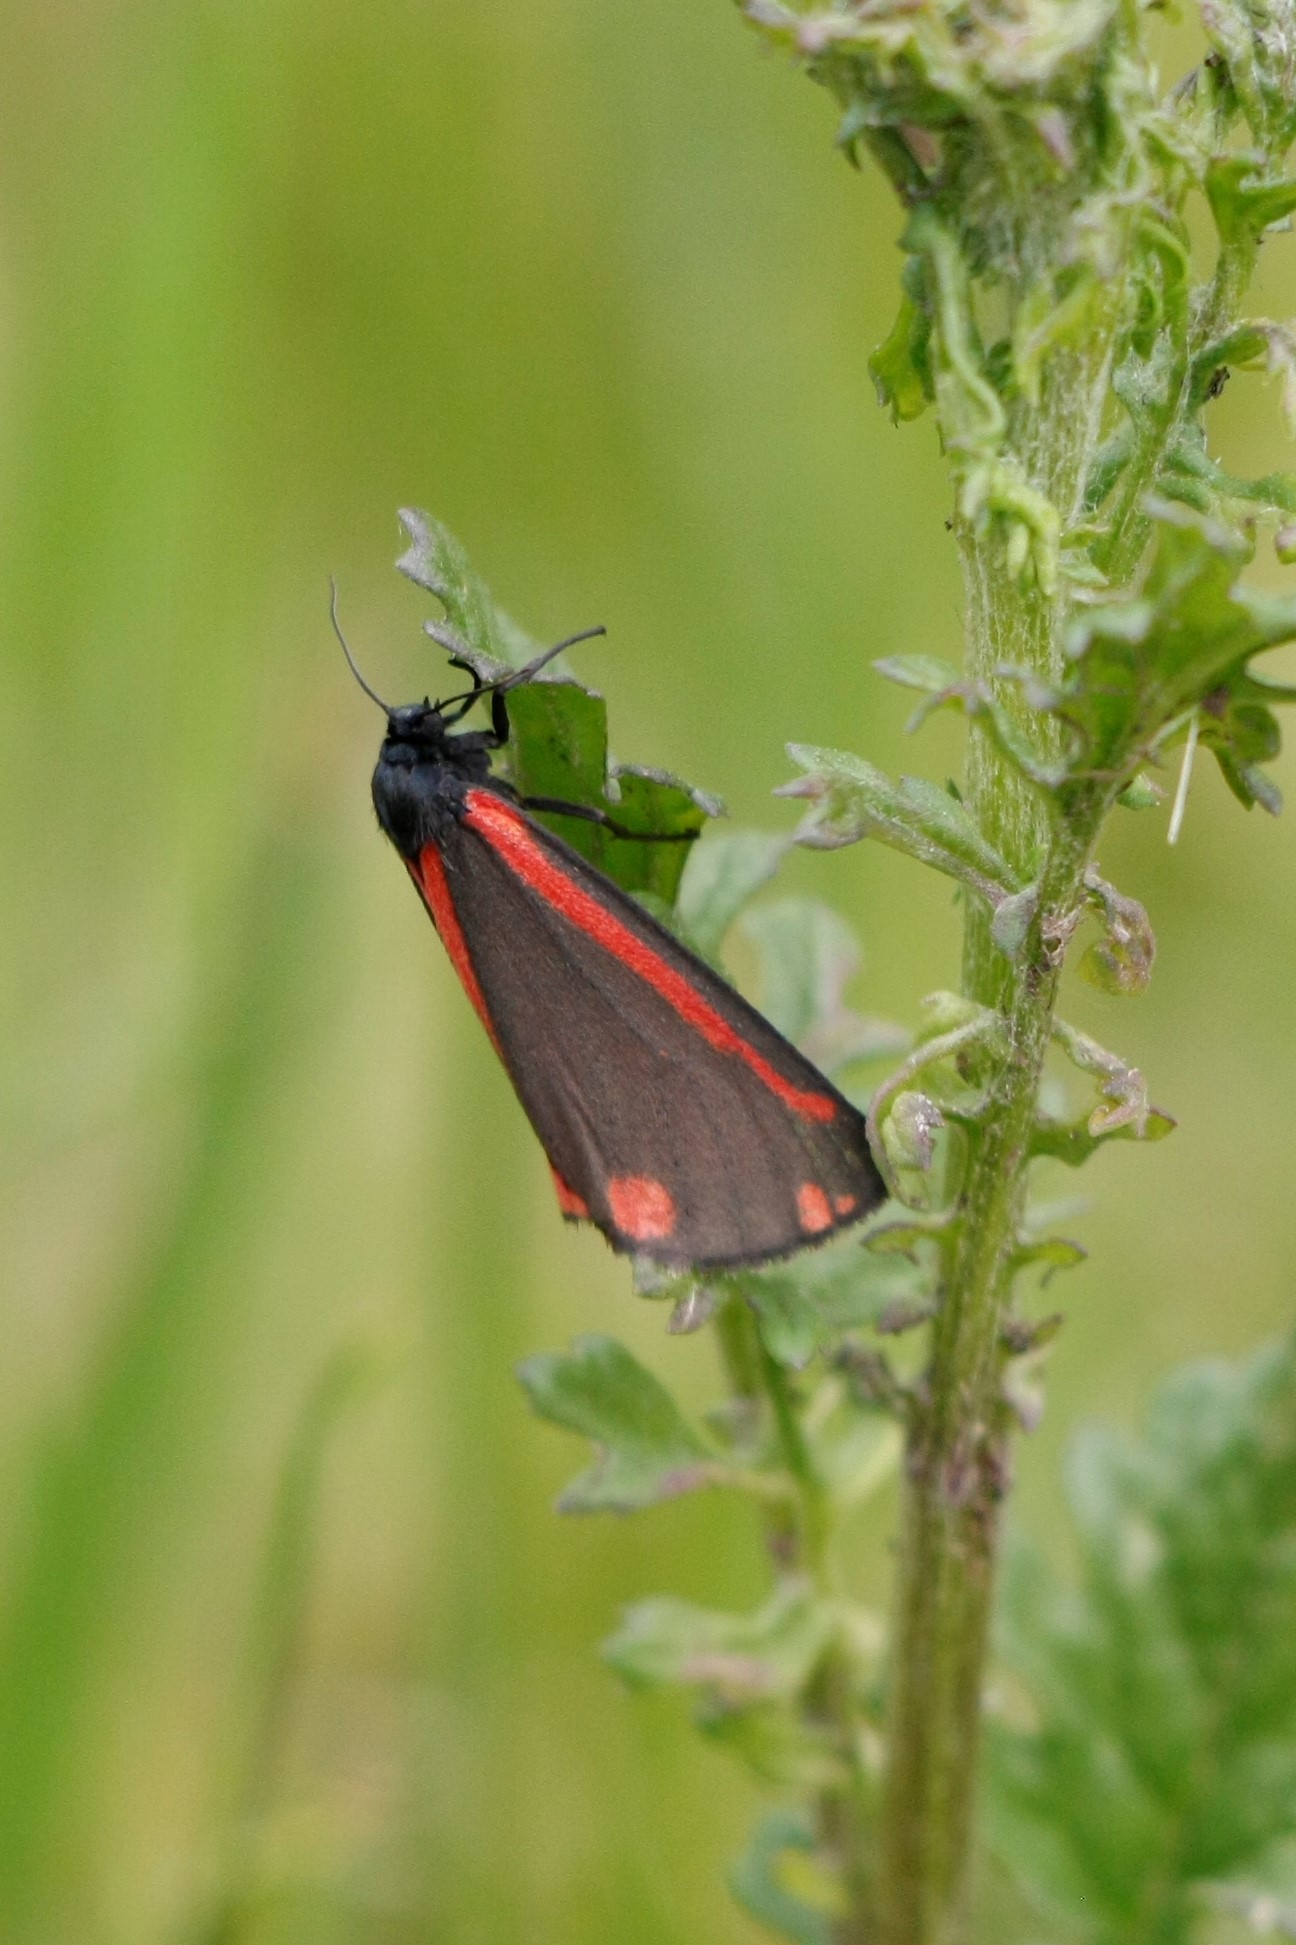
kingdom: Animalia
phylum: Arthropoda
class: Insecta
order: Lepidoptera
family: Erebidae
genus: Tyria
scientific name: Tyria jacobaeae
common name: Cinnabar
